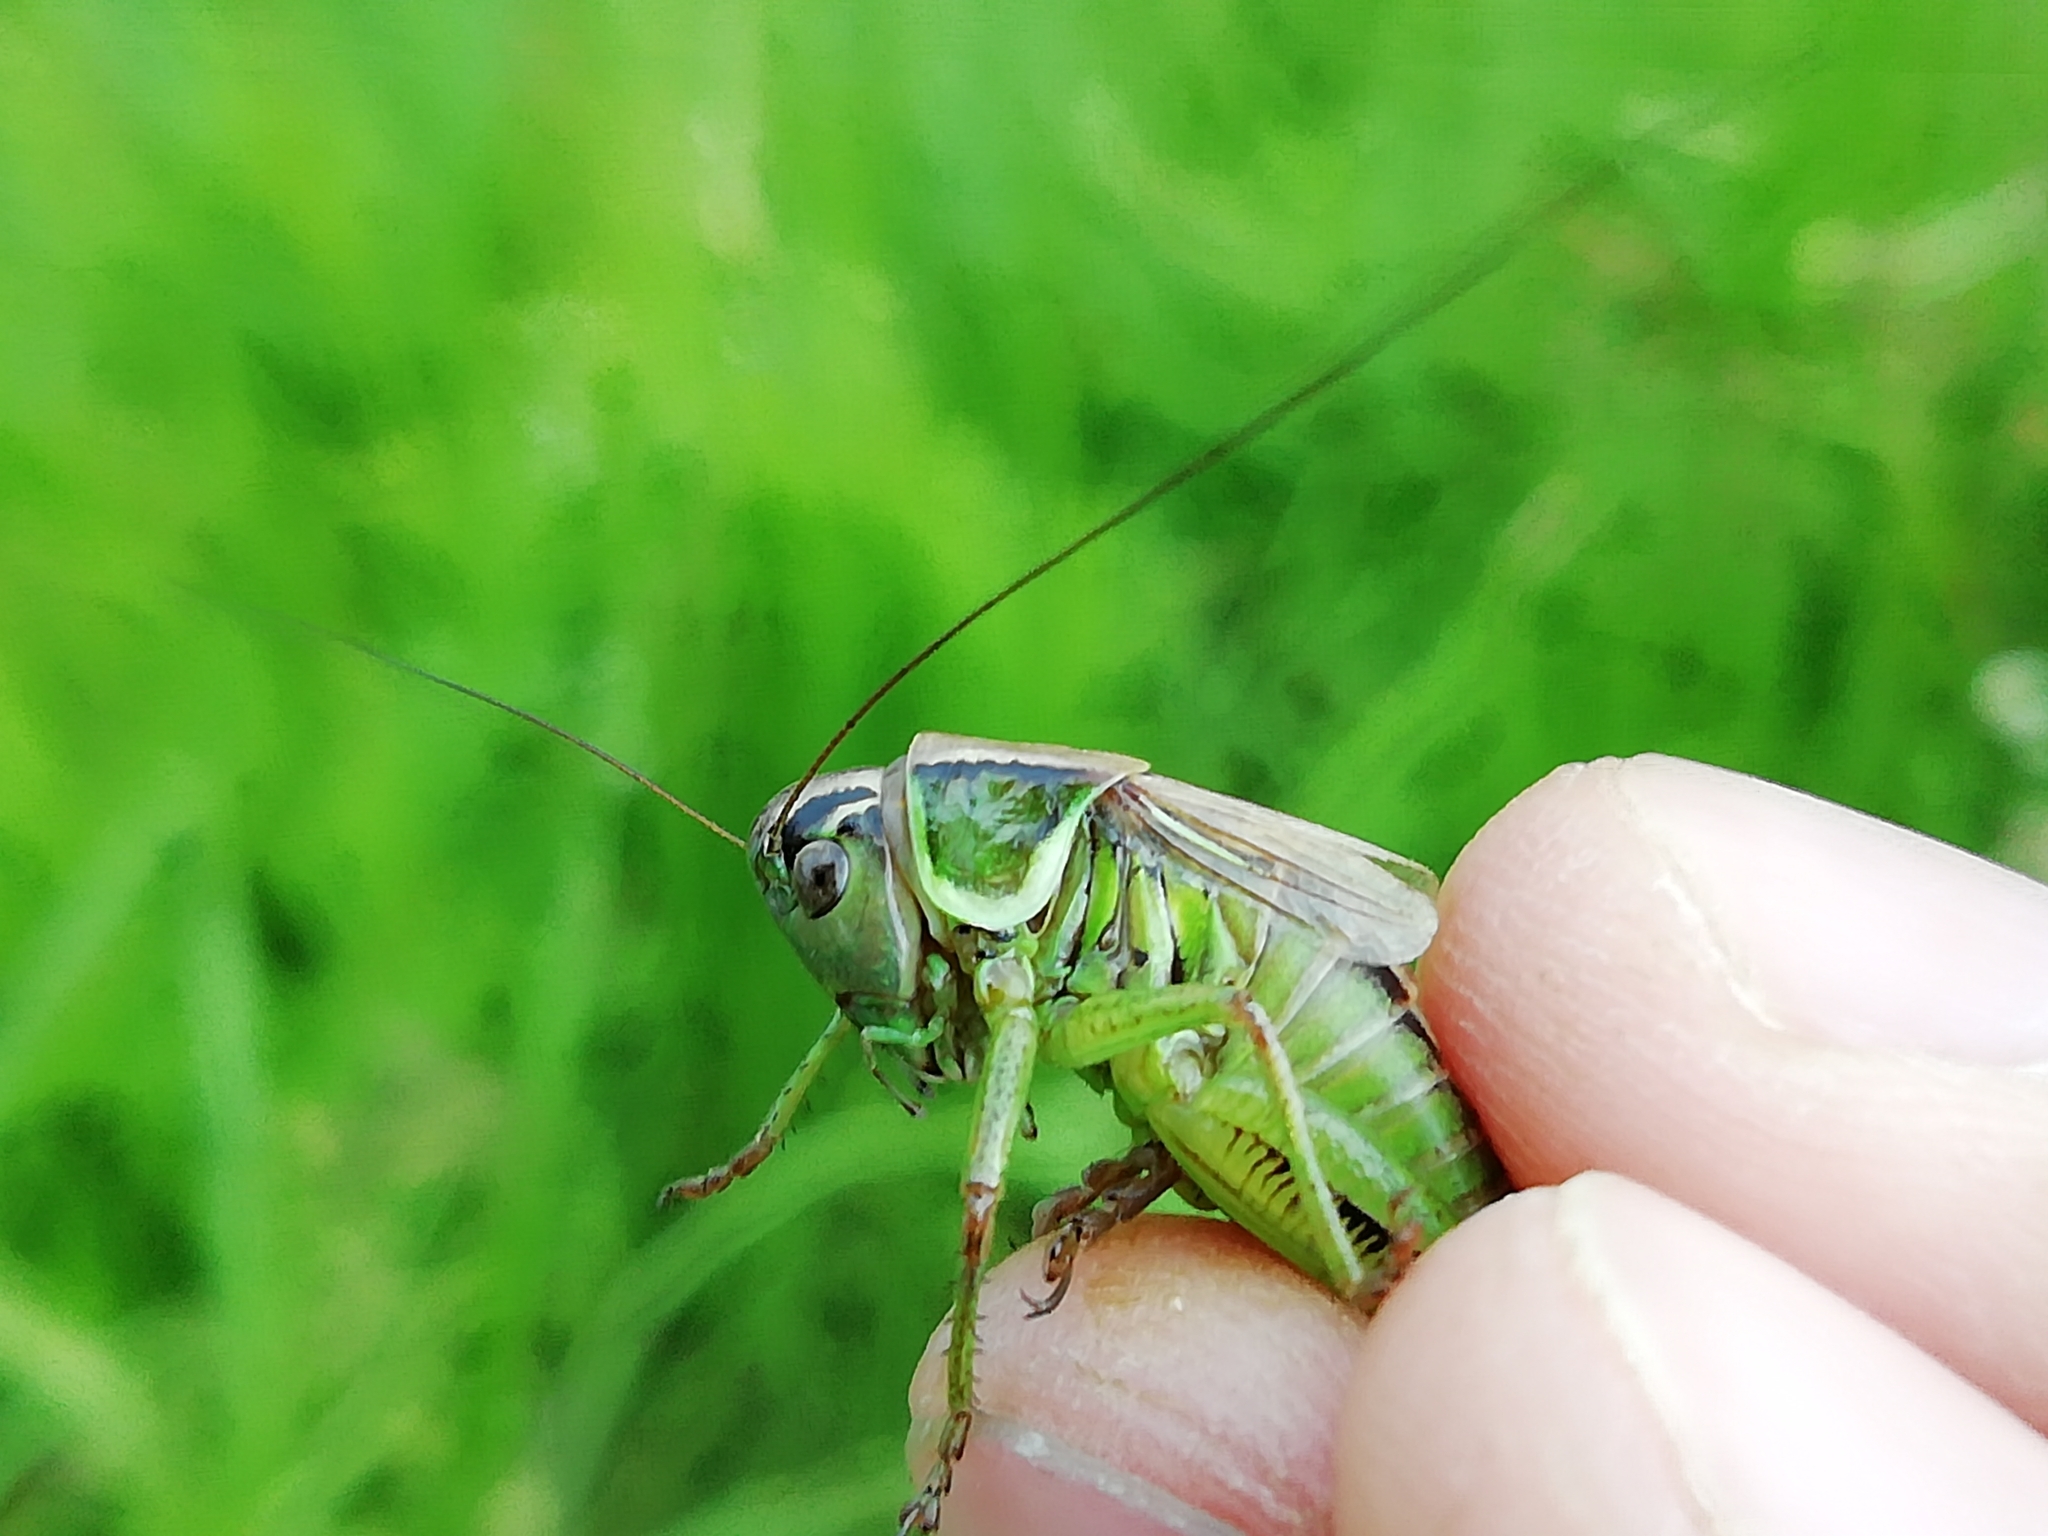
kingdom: Animalia
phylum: Arthropoda
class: Insecta
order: Orthoptera
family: Tettigoniidae
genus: Roeseliana
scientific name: Roeseliana roeselii
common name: Roesel's bush cricket
